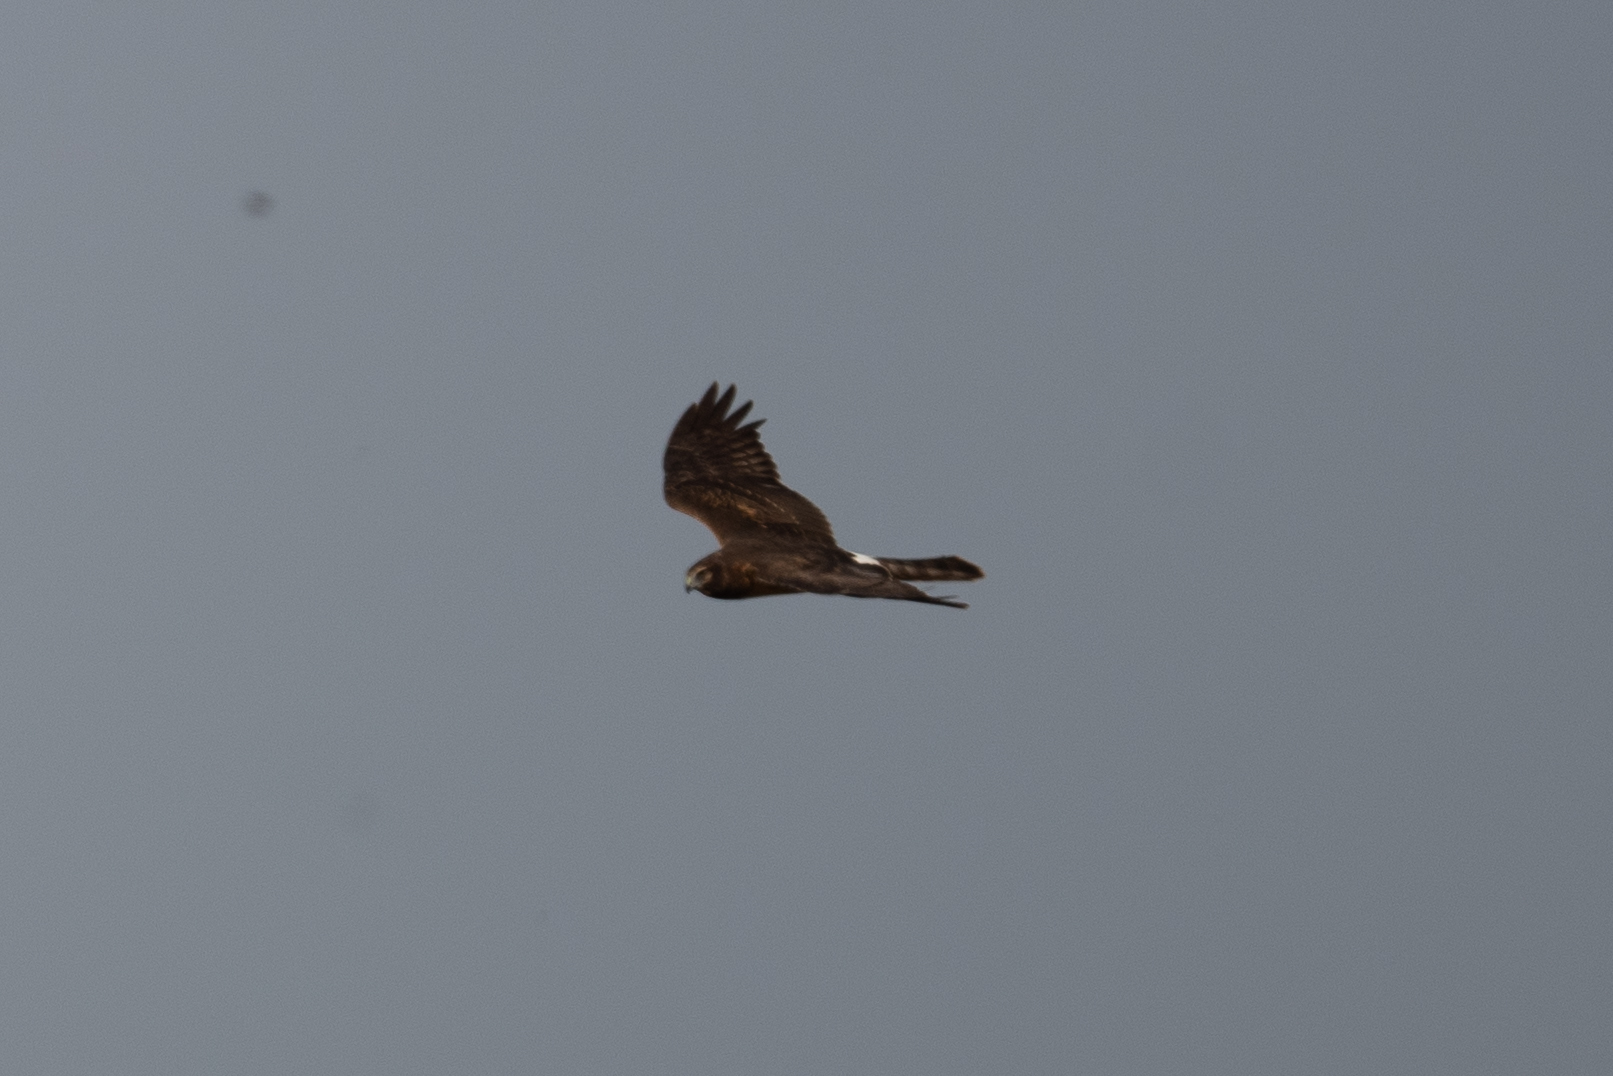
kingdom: Animalia
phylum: Chordata
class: Aves
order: Accipitriformes
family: Accipitridae
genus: Circus
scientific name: Circus cyaneus
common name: Hen harrier
